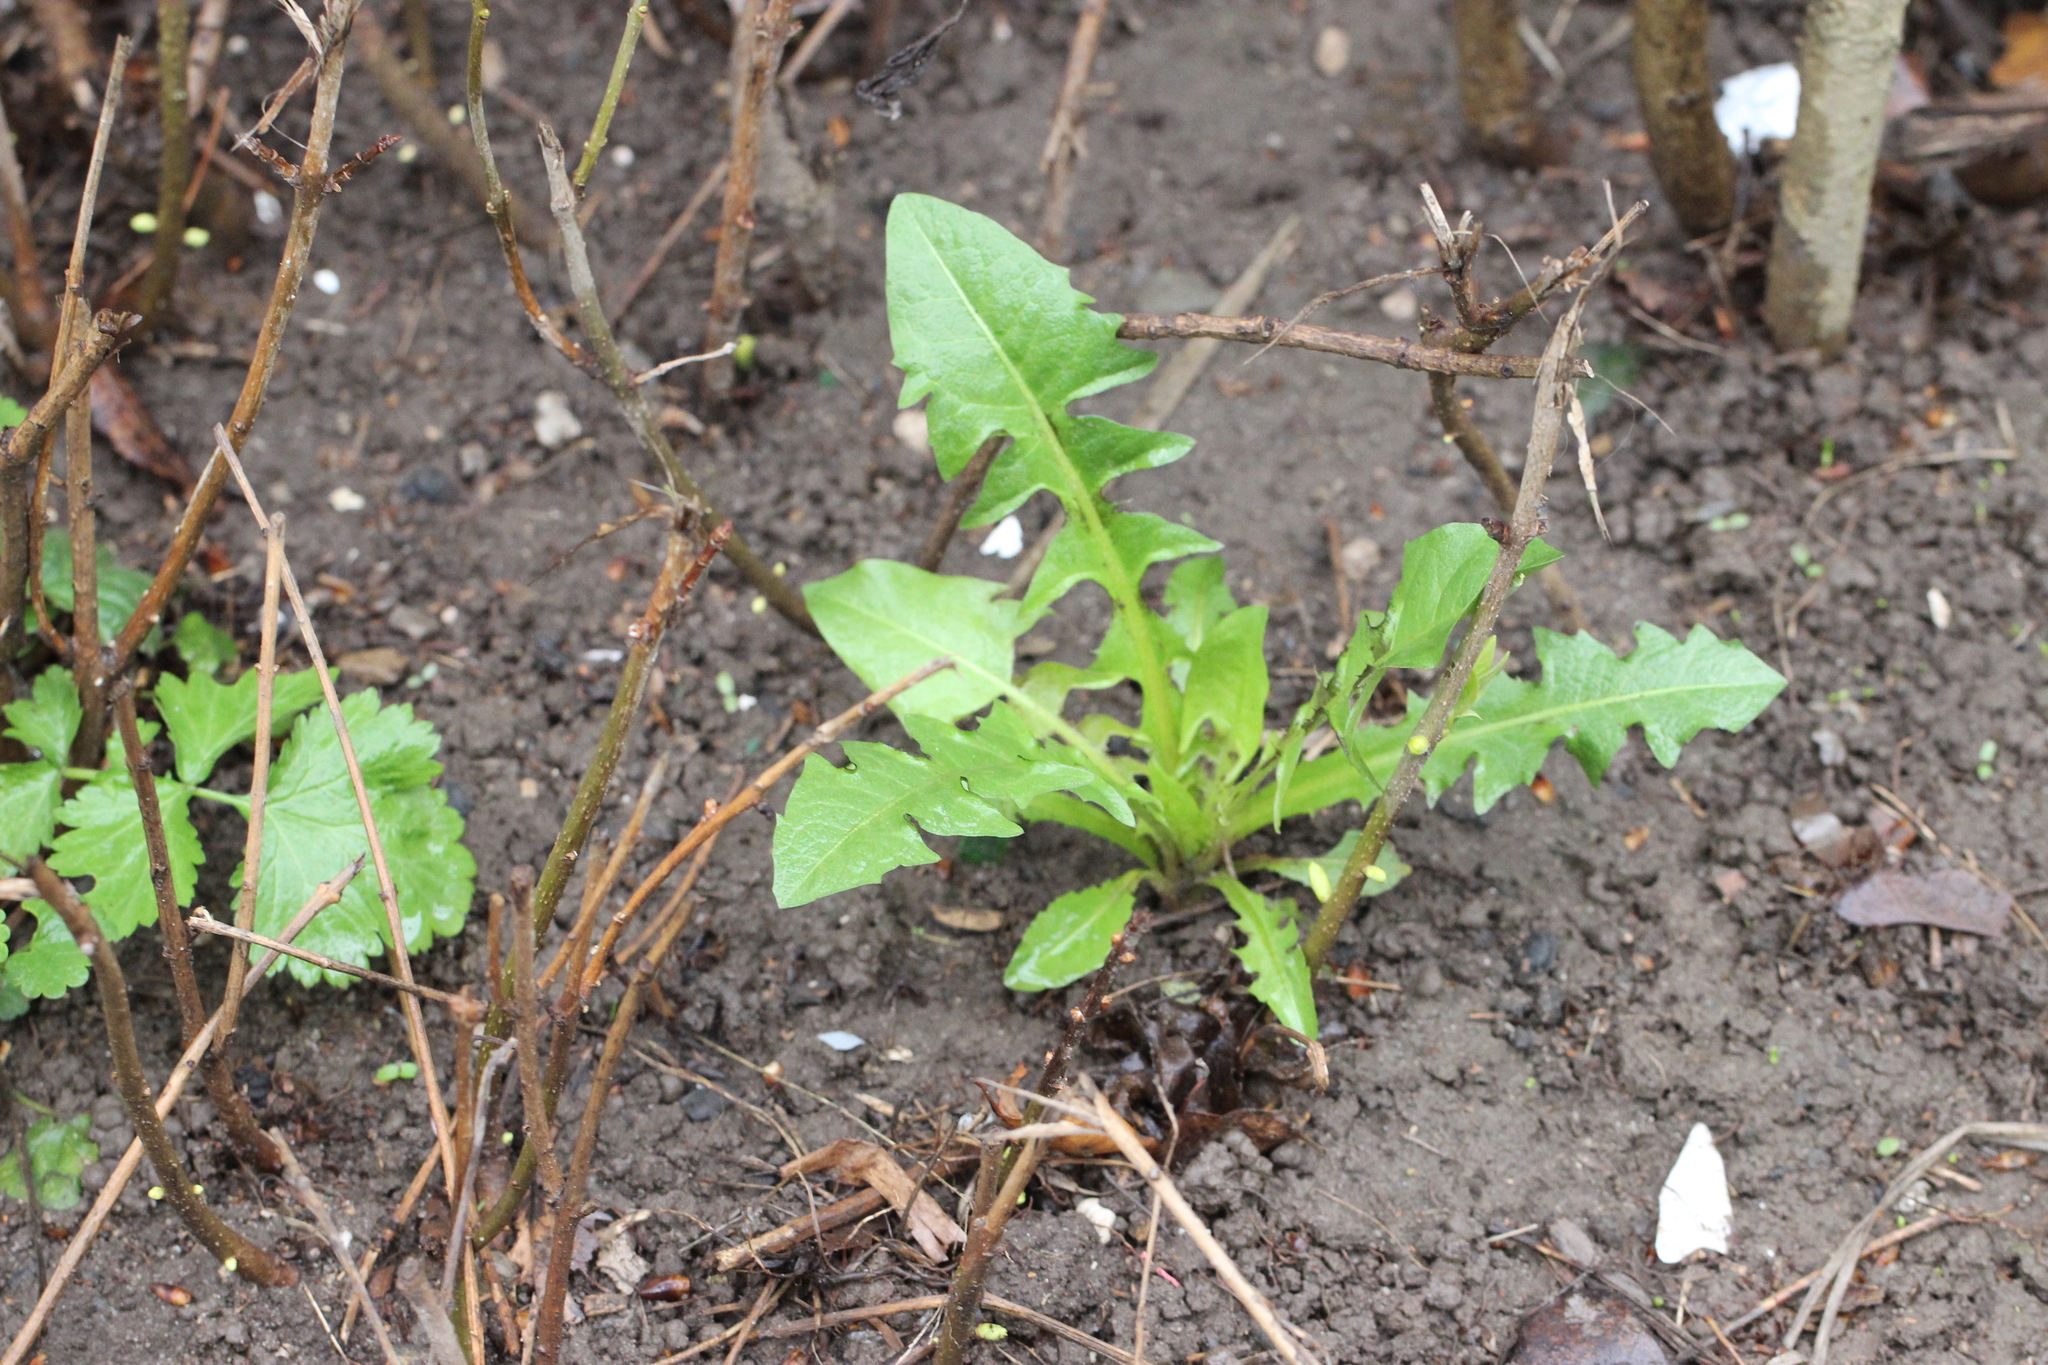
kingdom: Plantae
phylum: Tracheophyta
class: Magnoliopsida
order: Asterales
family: Asteraceae
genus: Taraxacum
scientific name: Taraxacum officinale
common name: Common dandelion
